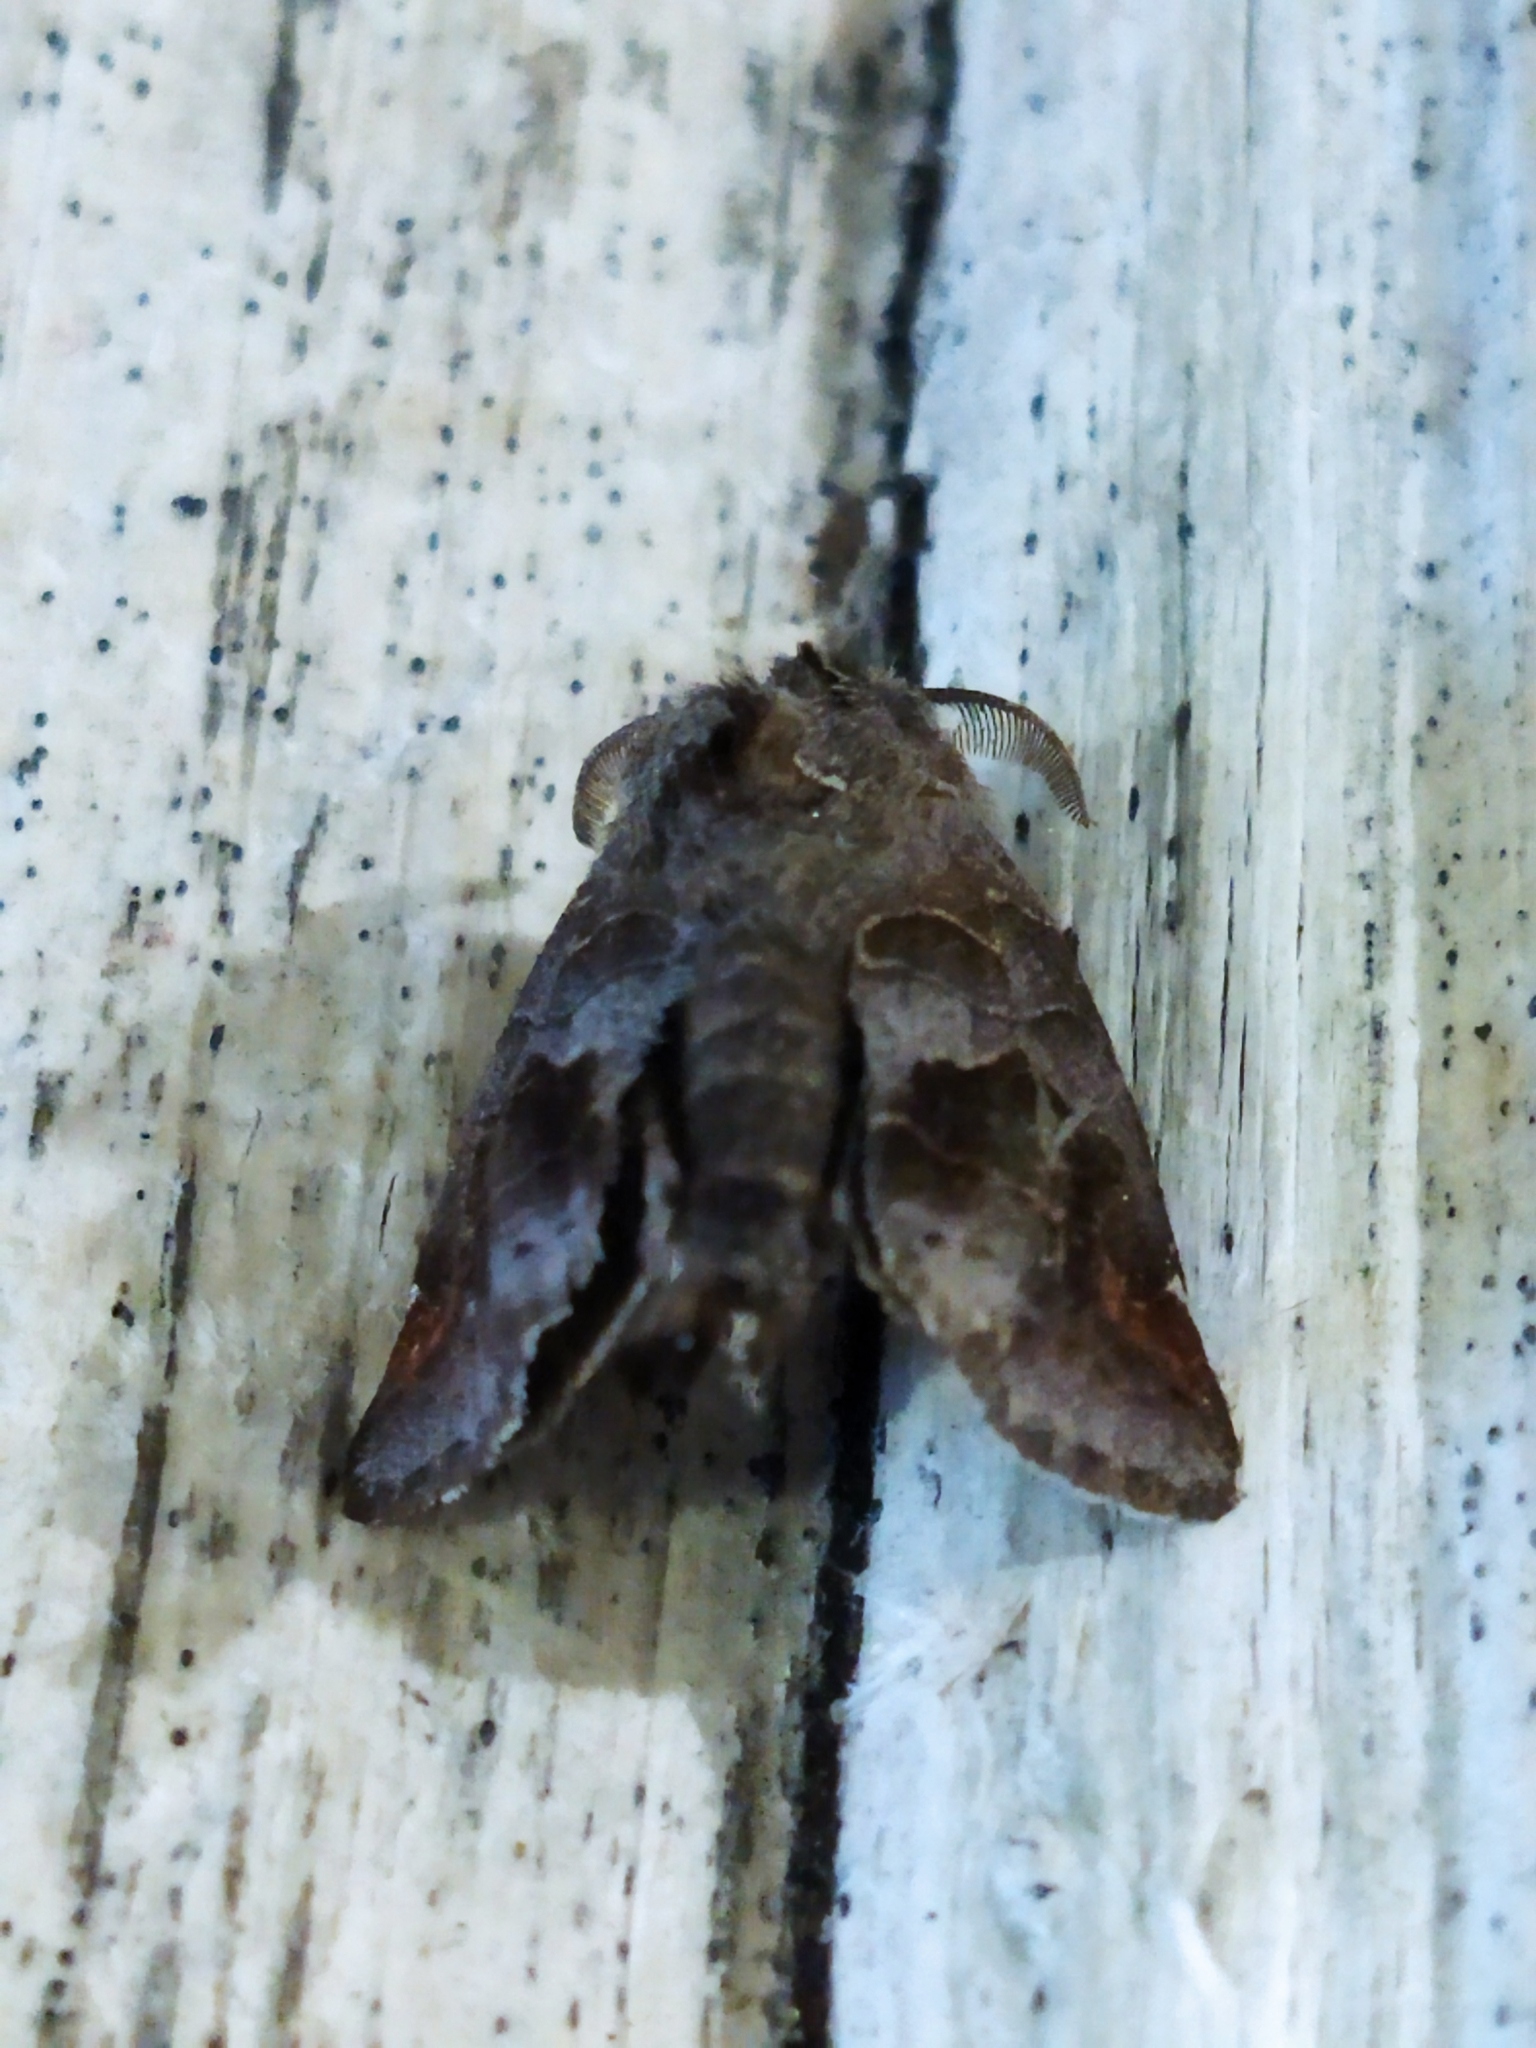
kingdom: Animalia
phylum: Arthropoda
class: Insecta
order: Lepidoptera
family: Notodontidae
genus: Clostera
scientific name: Clostera pigra
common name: Small chocolate-tip
